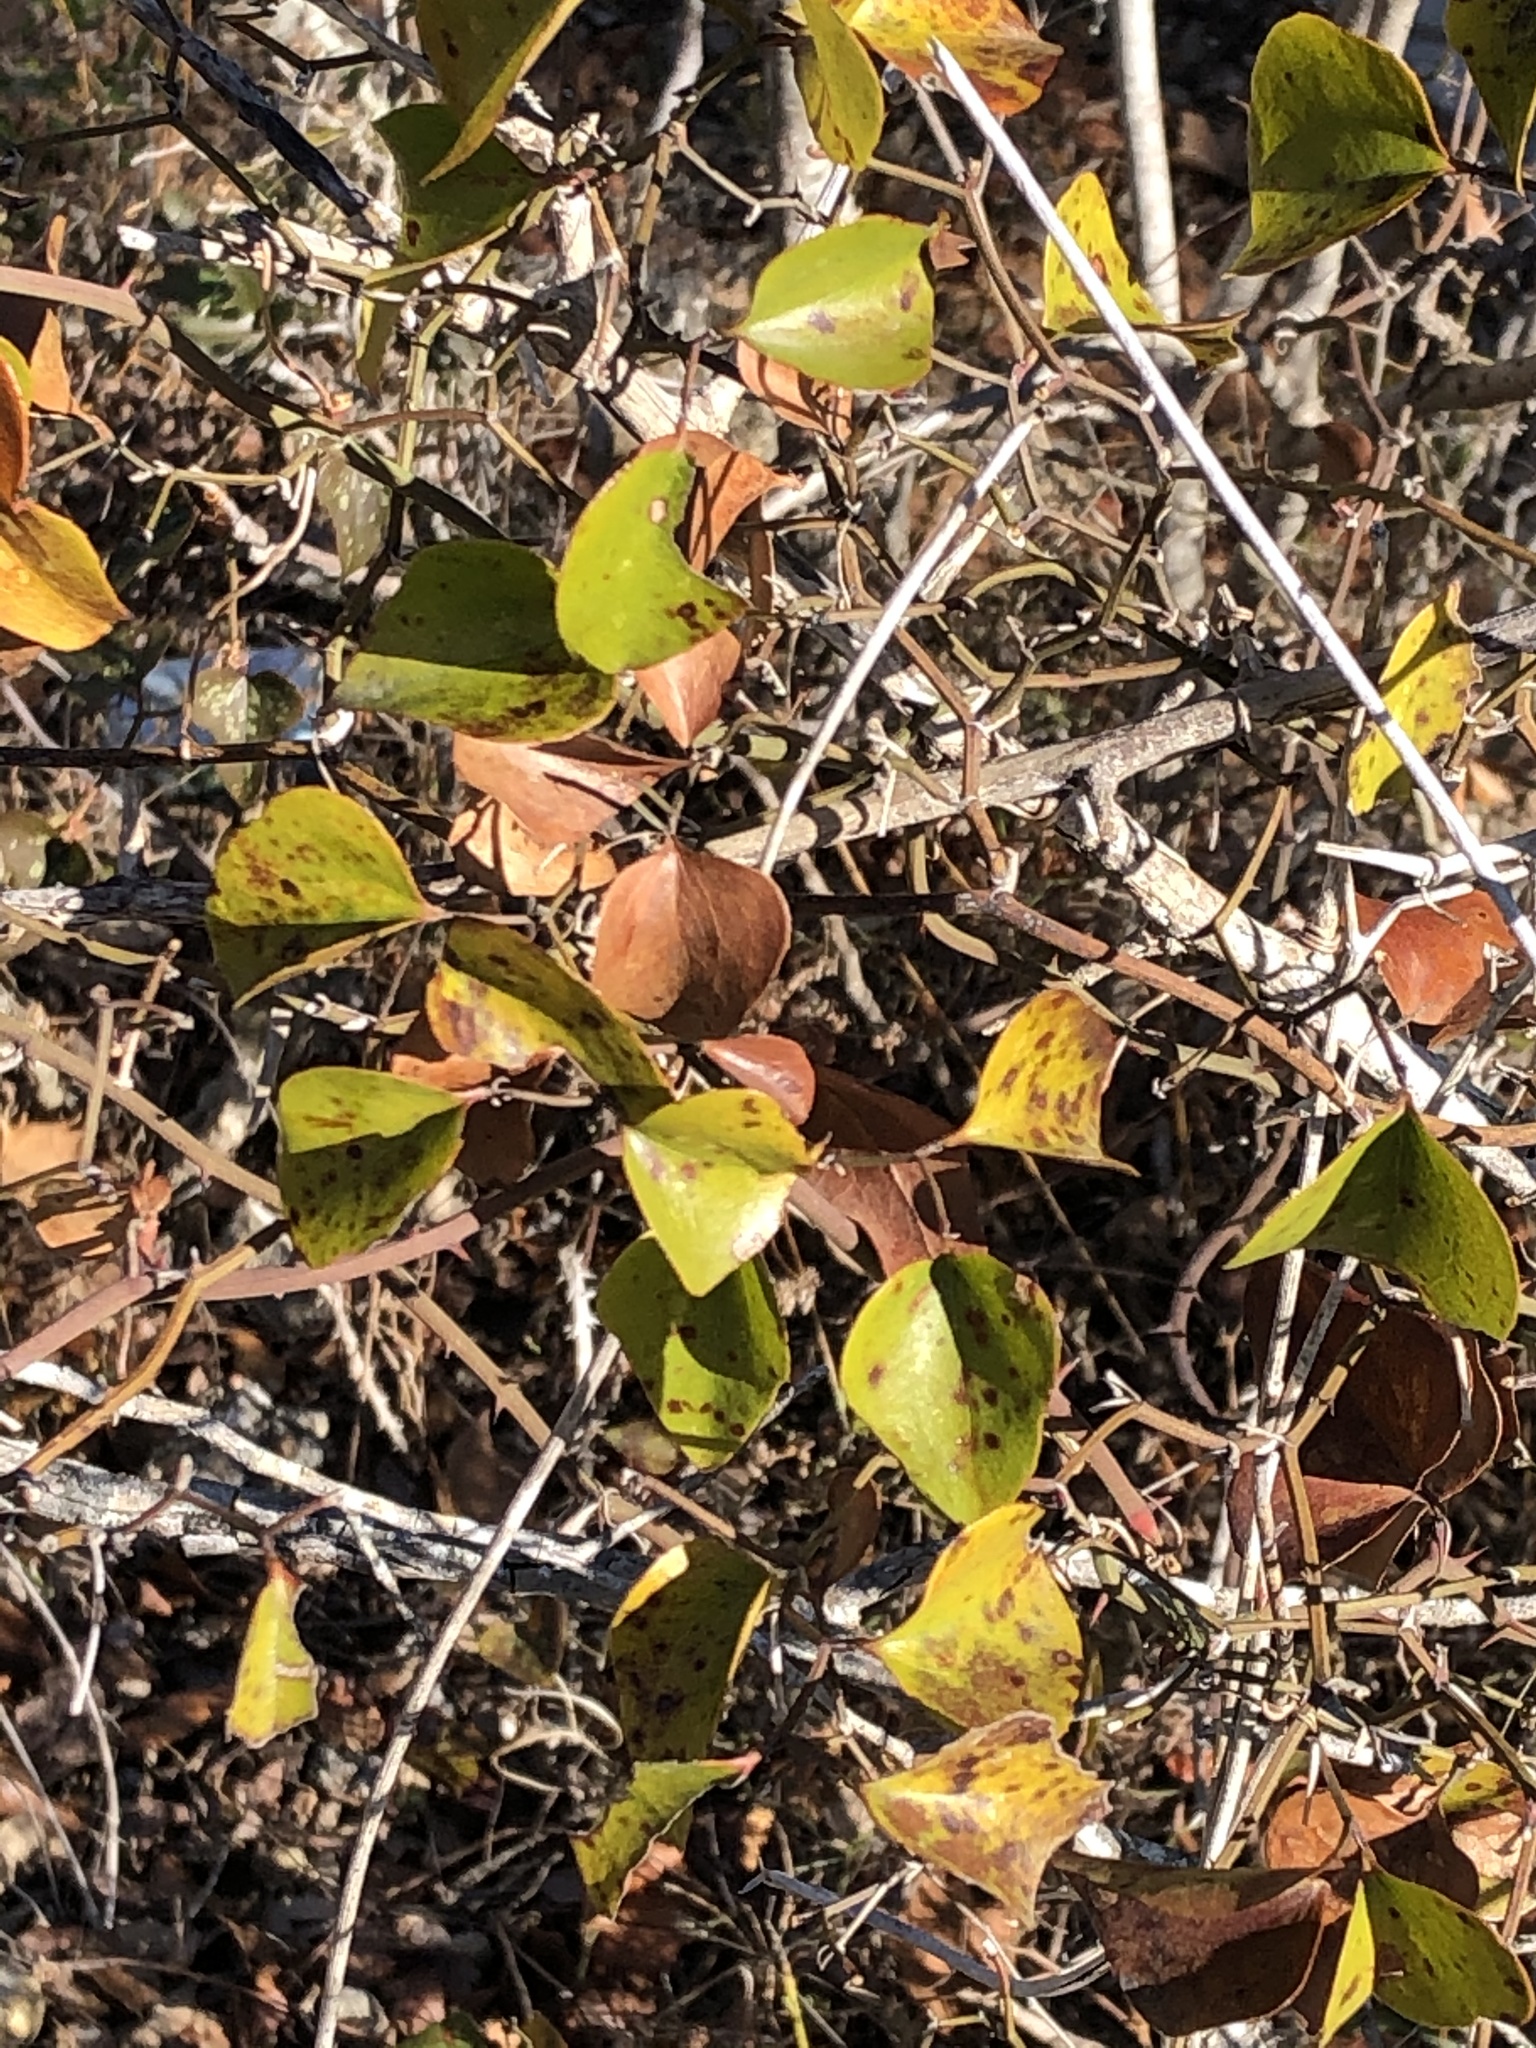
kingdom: Plantae
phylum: Tracheophyta
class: Liliopsida
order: Liliales
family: Smilacaceae
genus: Smilax
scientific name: Smilax bona-nox
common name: Catbrier
